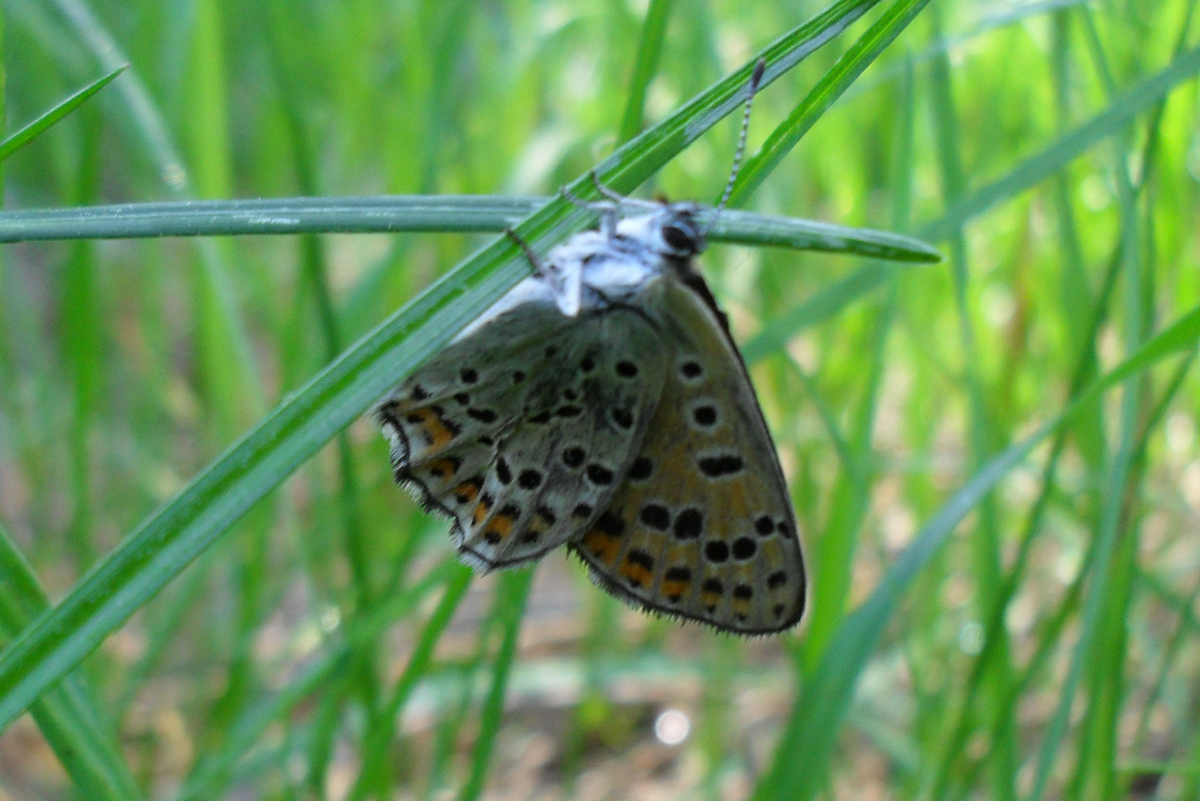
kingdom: Animalia
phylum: Arthropoda
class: Insecta
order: Lepidoptera
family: Lycaenidae
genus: Loweia
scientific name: Loweia tityrus
